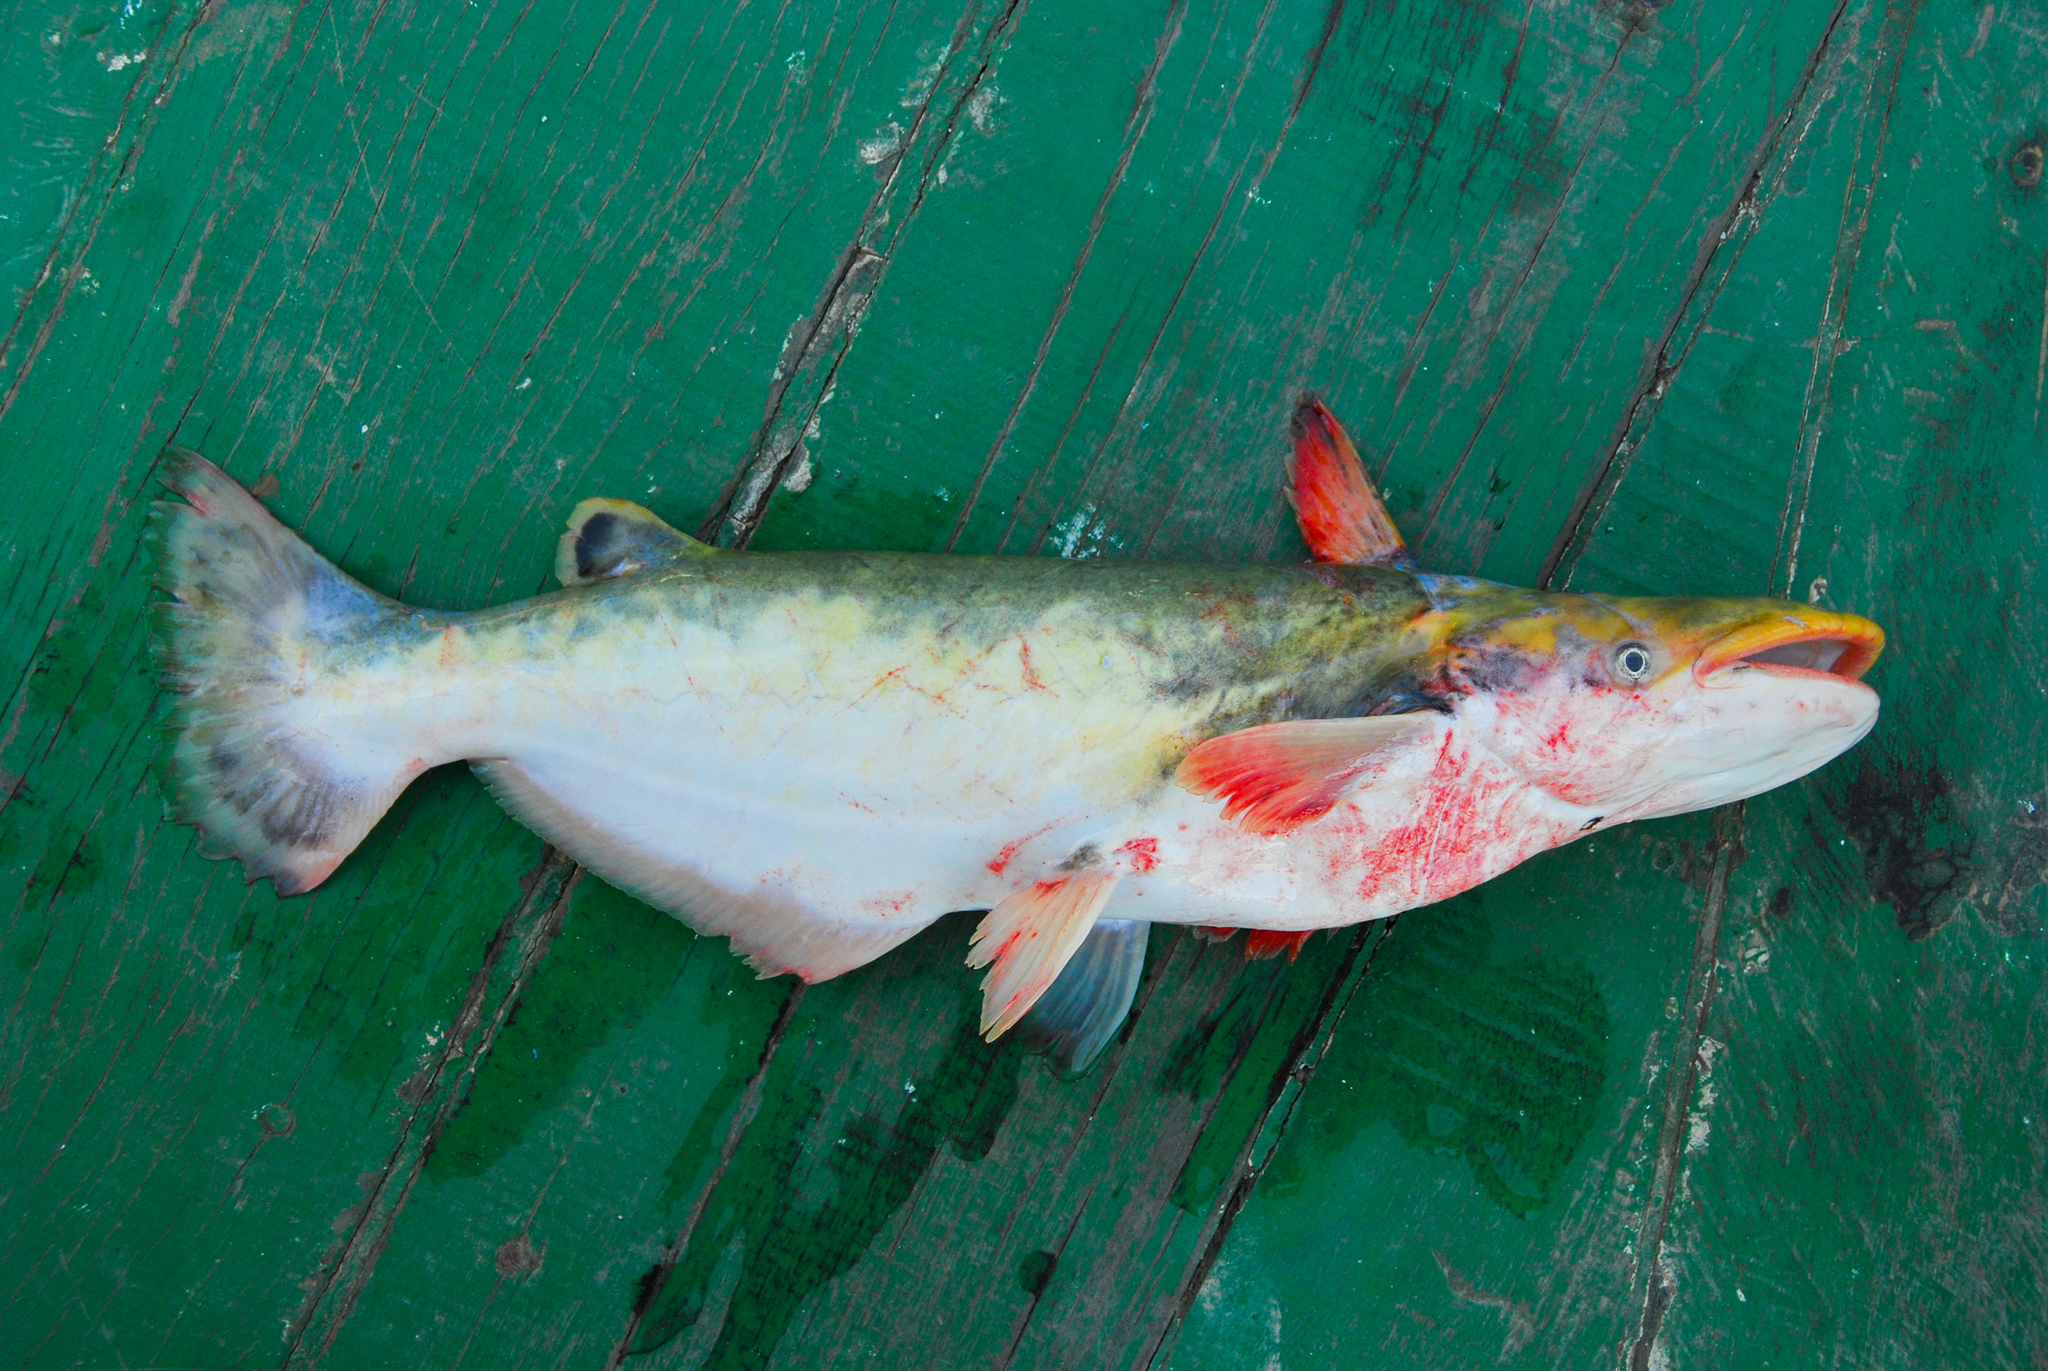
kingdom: Animalia
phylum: Chordata
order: Siluriformes
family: Auchenipteridae
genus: Ageneiosus
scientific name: Ageneiosus inermis
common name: Manduba
